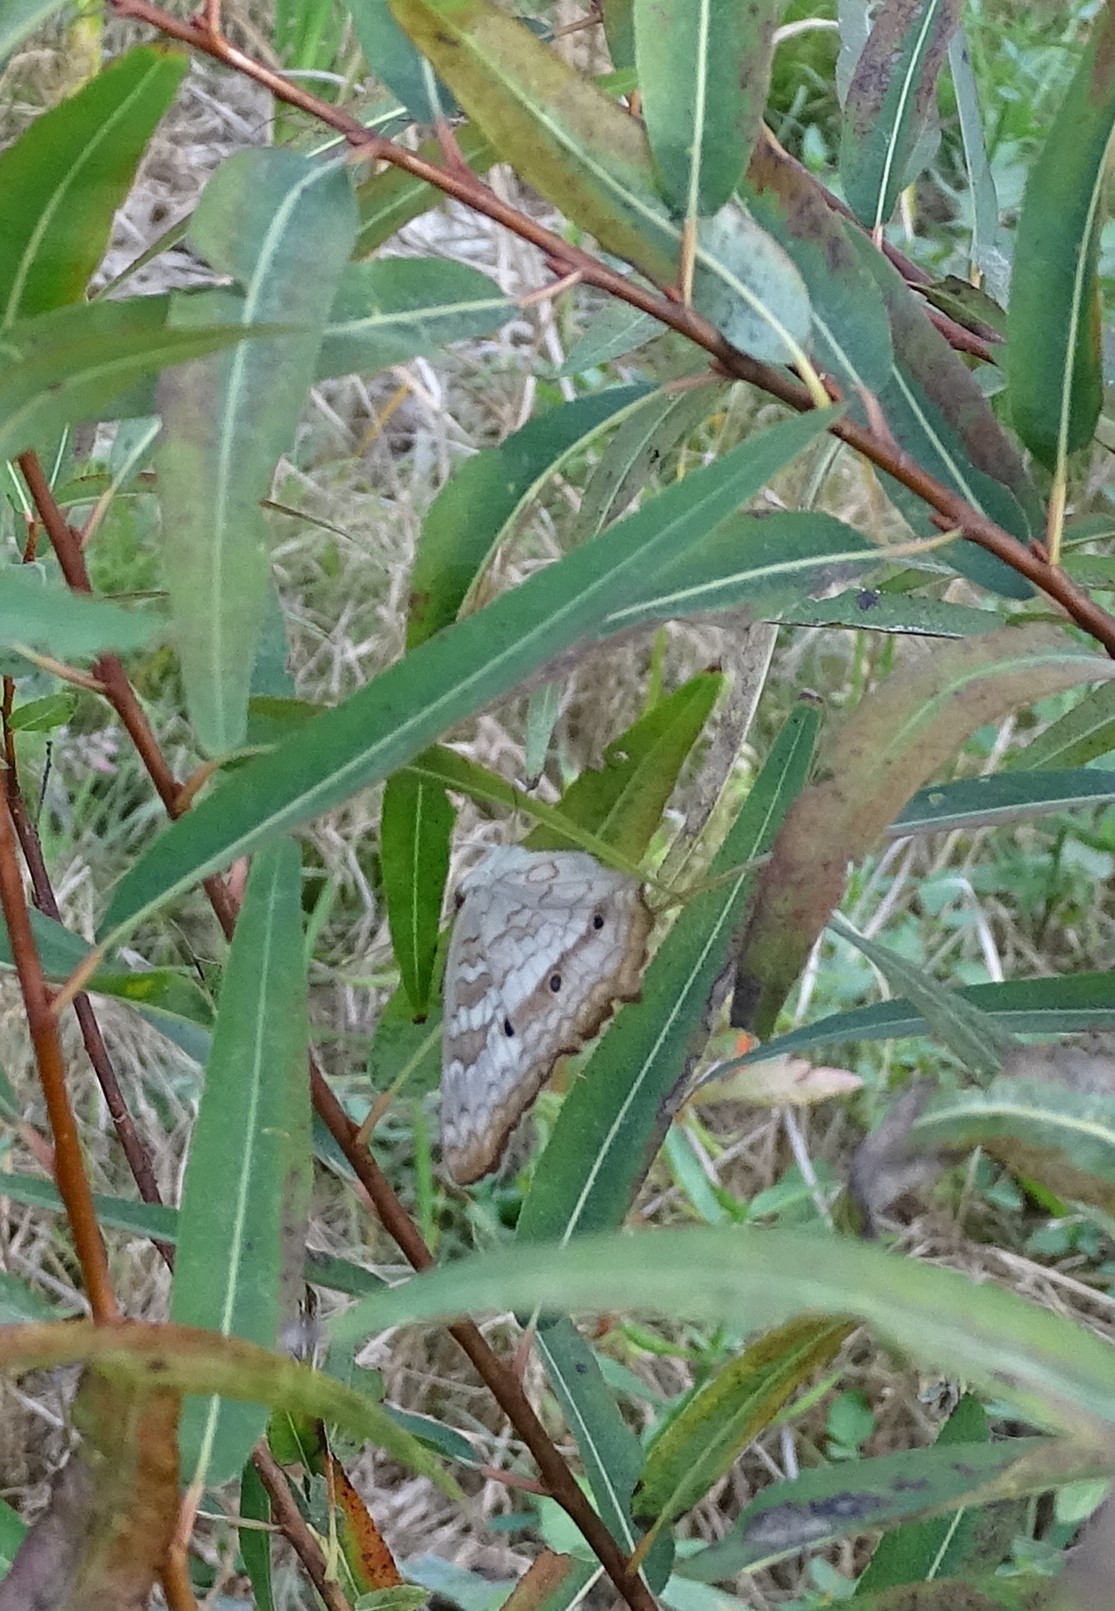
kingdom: Animalia
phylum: Arthropoda
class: Insecta
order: Lepidoptera
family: Nymphalidae
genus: Anartia
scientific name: Anartia jatrophae
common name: White peacock
